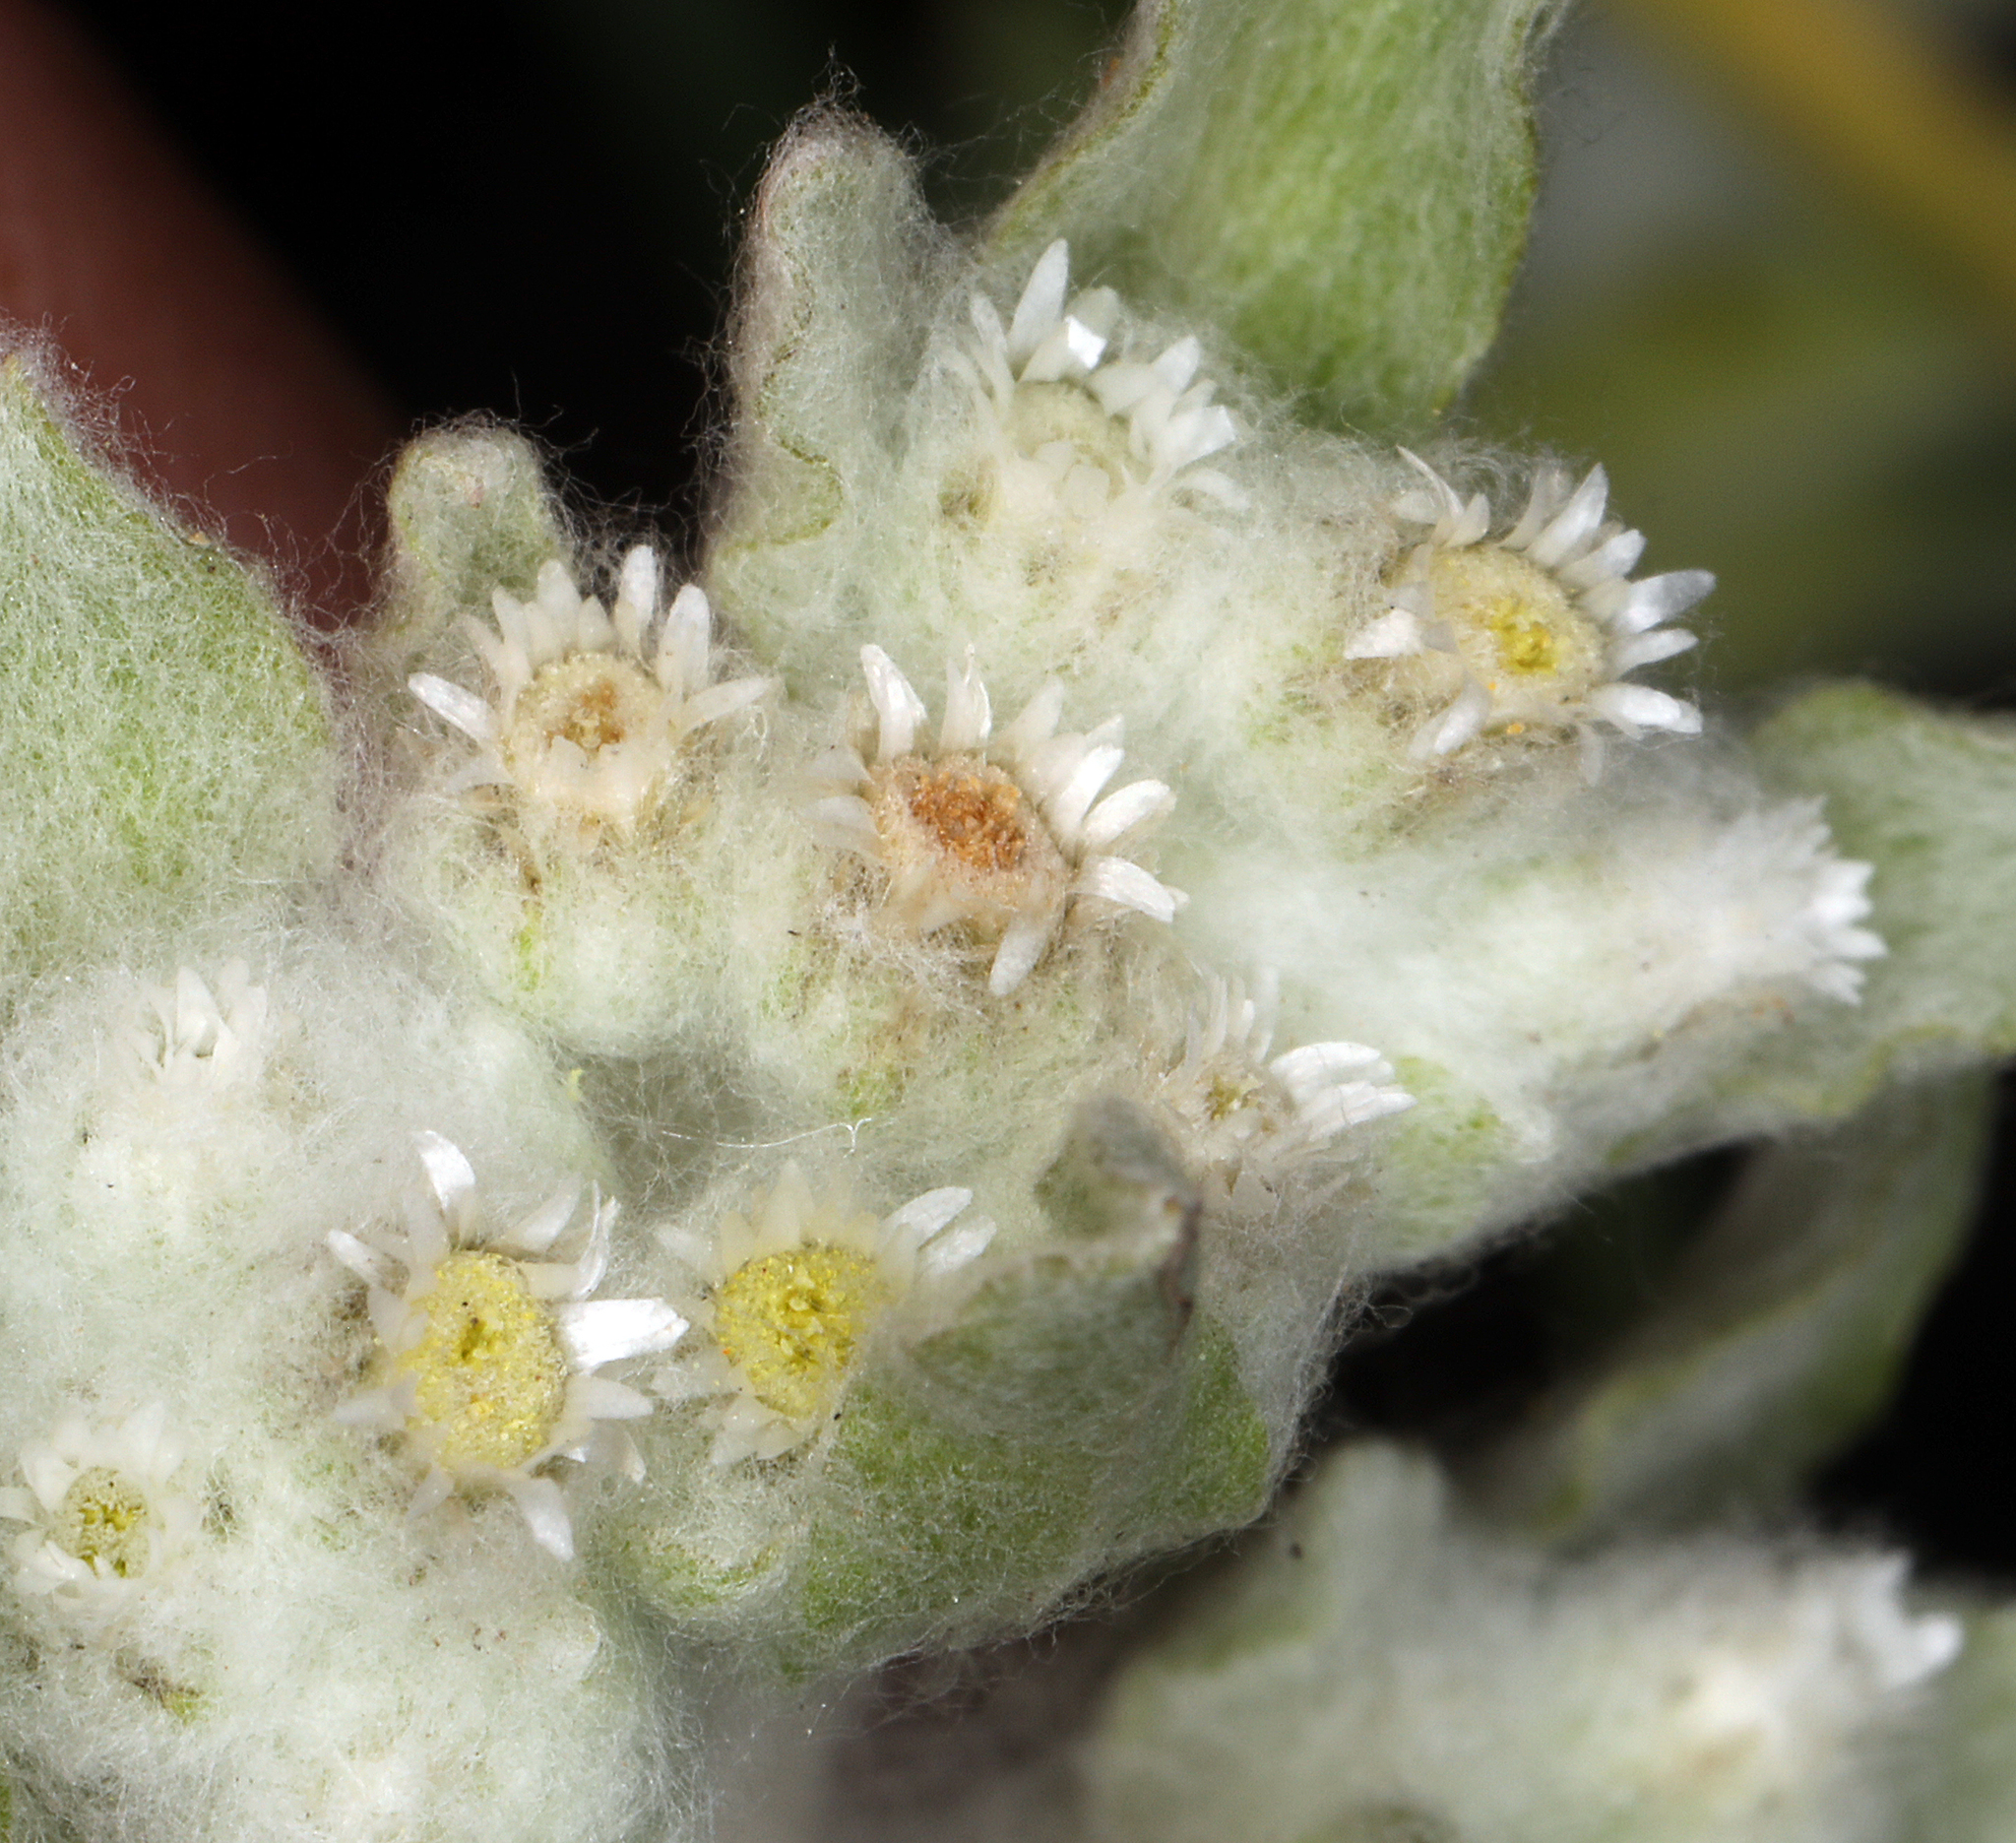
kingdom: Plantae
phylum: Tracheophyta
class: Magnoliopsida
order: Asterales
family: Asteraceae
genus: Gnaphalium
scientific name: Gnaphalium palustre
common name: Western marsh cudweed
